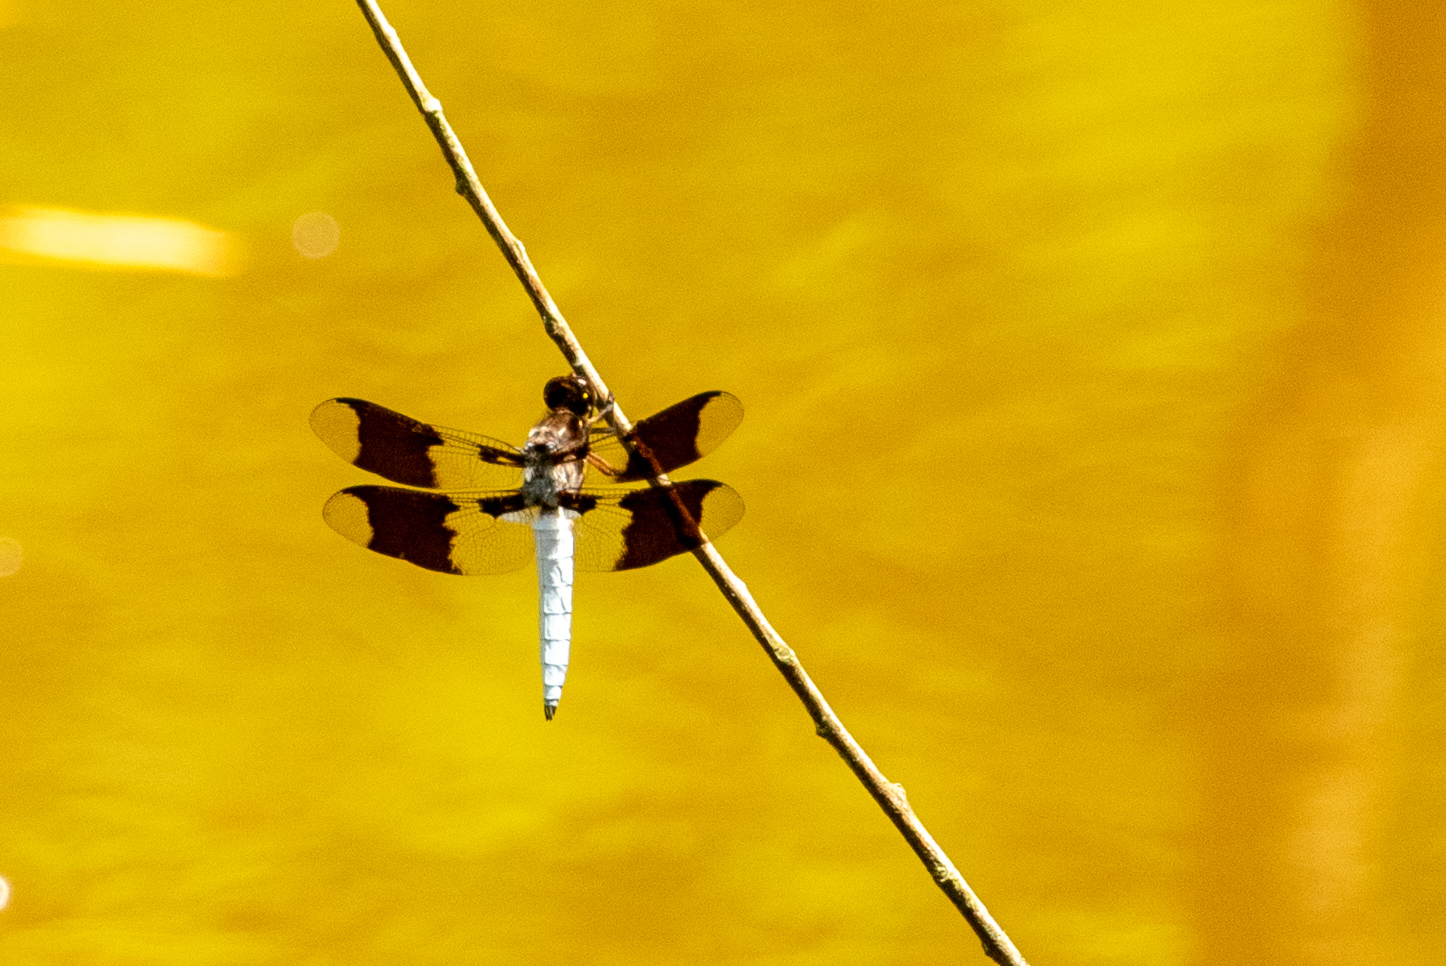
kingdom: Animalia
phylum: Arthropoda
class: Insecta
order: Odonata
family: Libellulidae
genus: Plathemis
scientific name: Plathemis lydia
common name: Common whitetail
